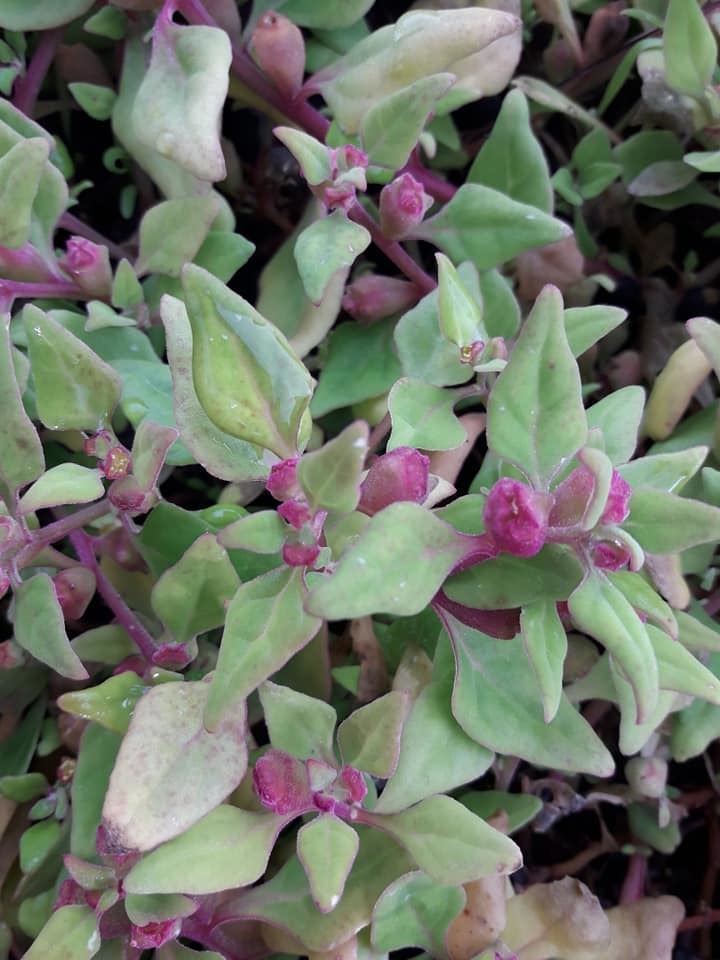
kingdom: Plantae
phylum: Tracheophyta
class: Magnoliopsida
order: Caryophyllales
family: Aizoaceae
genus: Tetragonia
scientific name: Tetragonia tetragonoides
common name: New zealand-spinach
